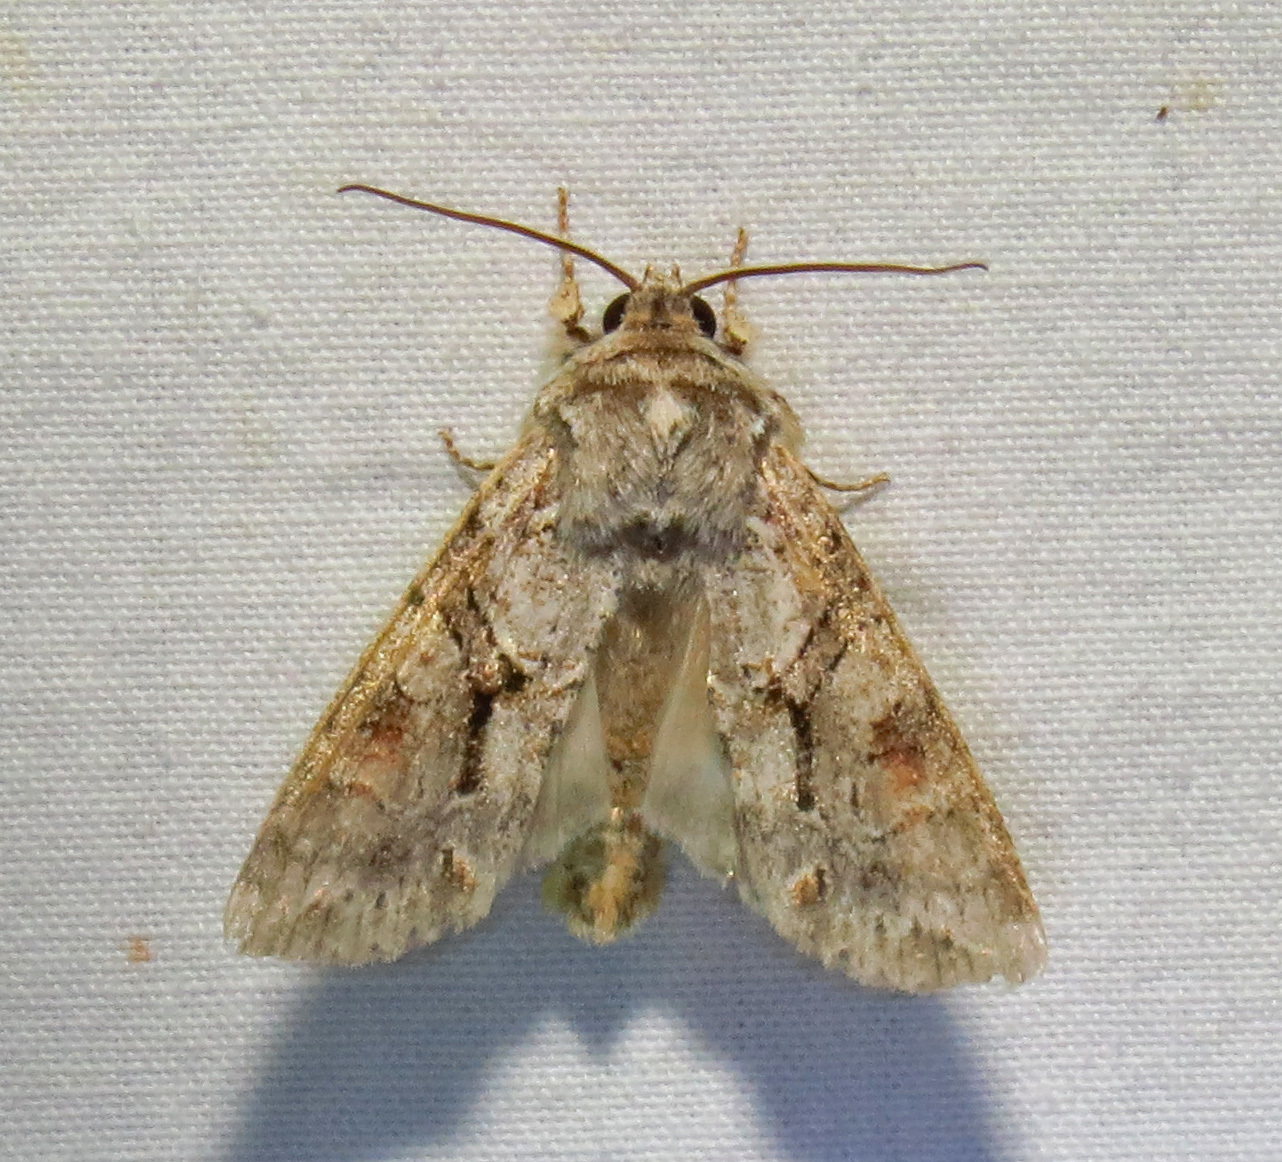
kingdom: Animalia
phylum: Arthropoda
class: Insecta
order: Lepidoptera
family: Noctuidae
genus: Achatia
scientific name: Achatia distincta
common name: Distinct quaker
